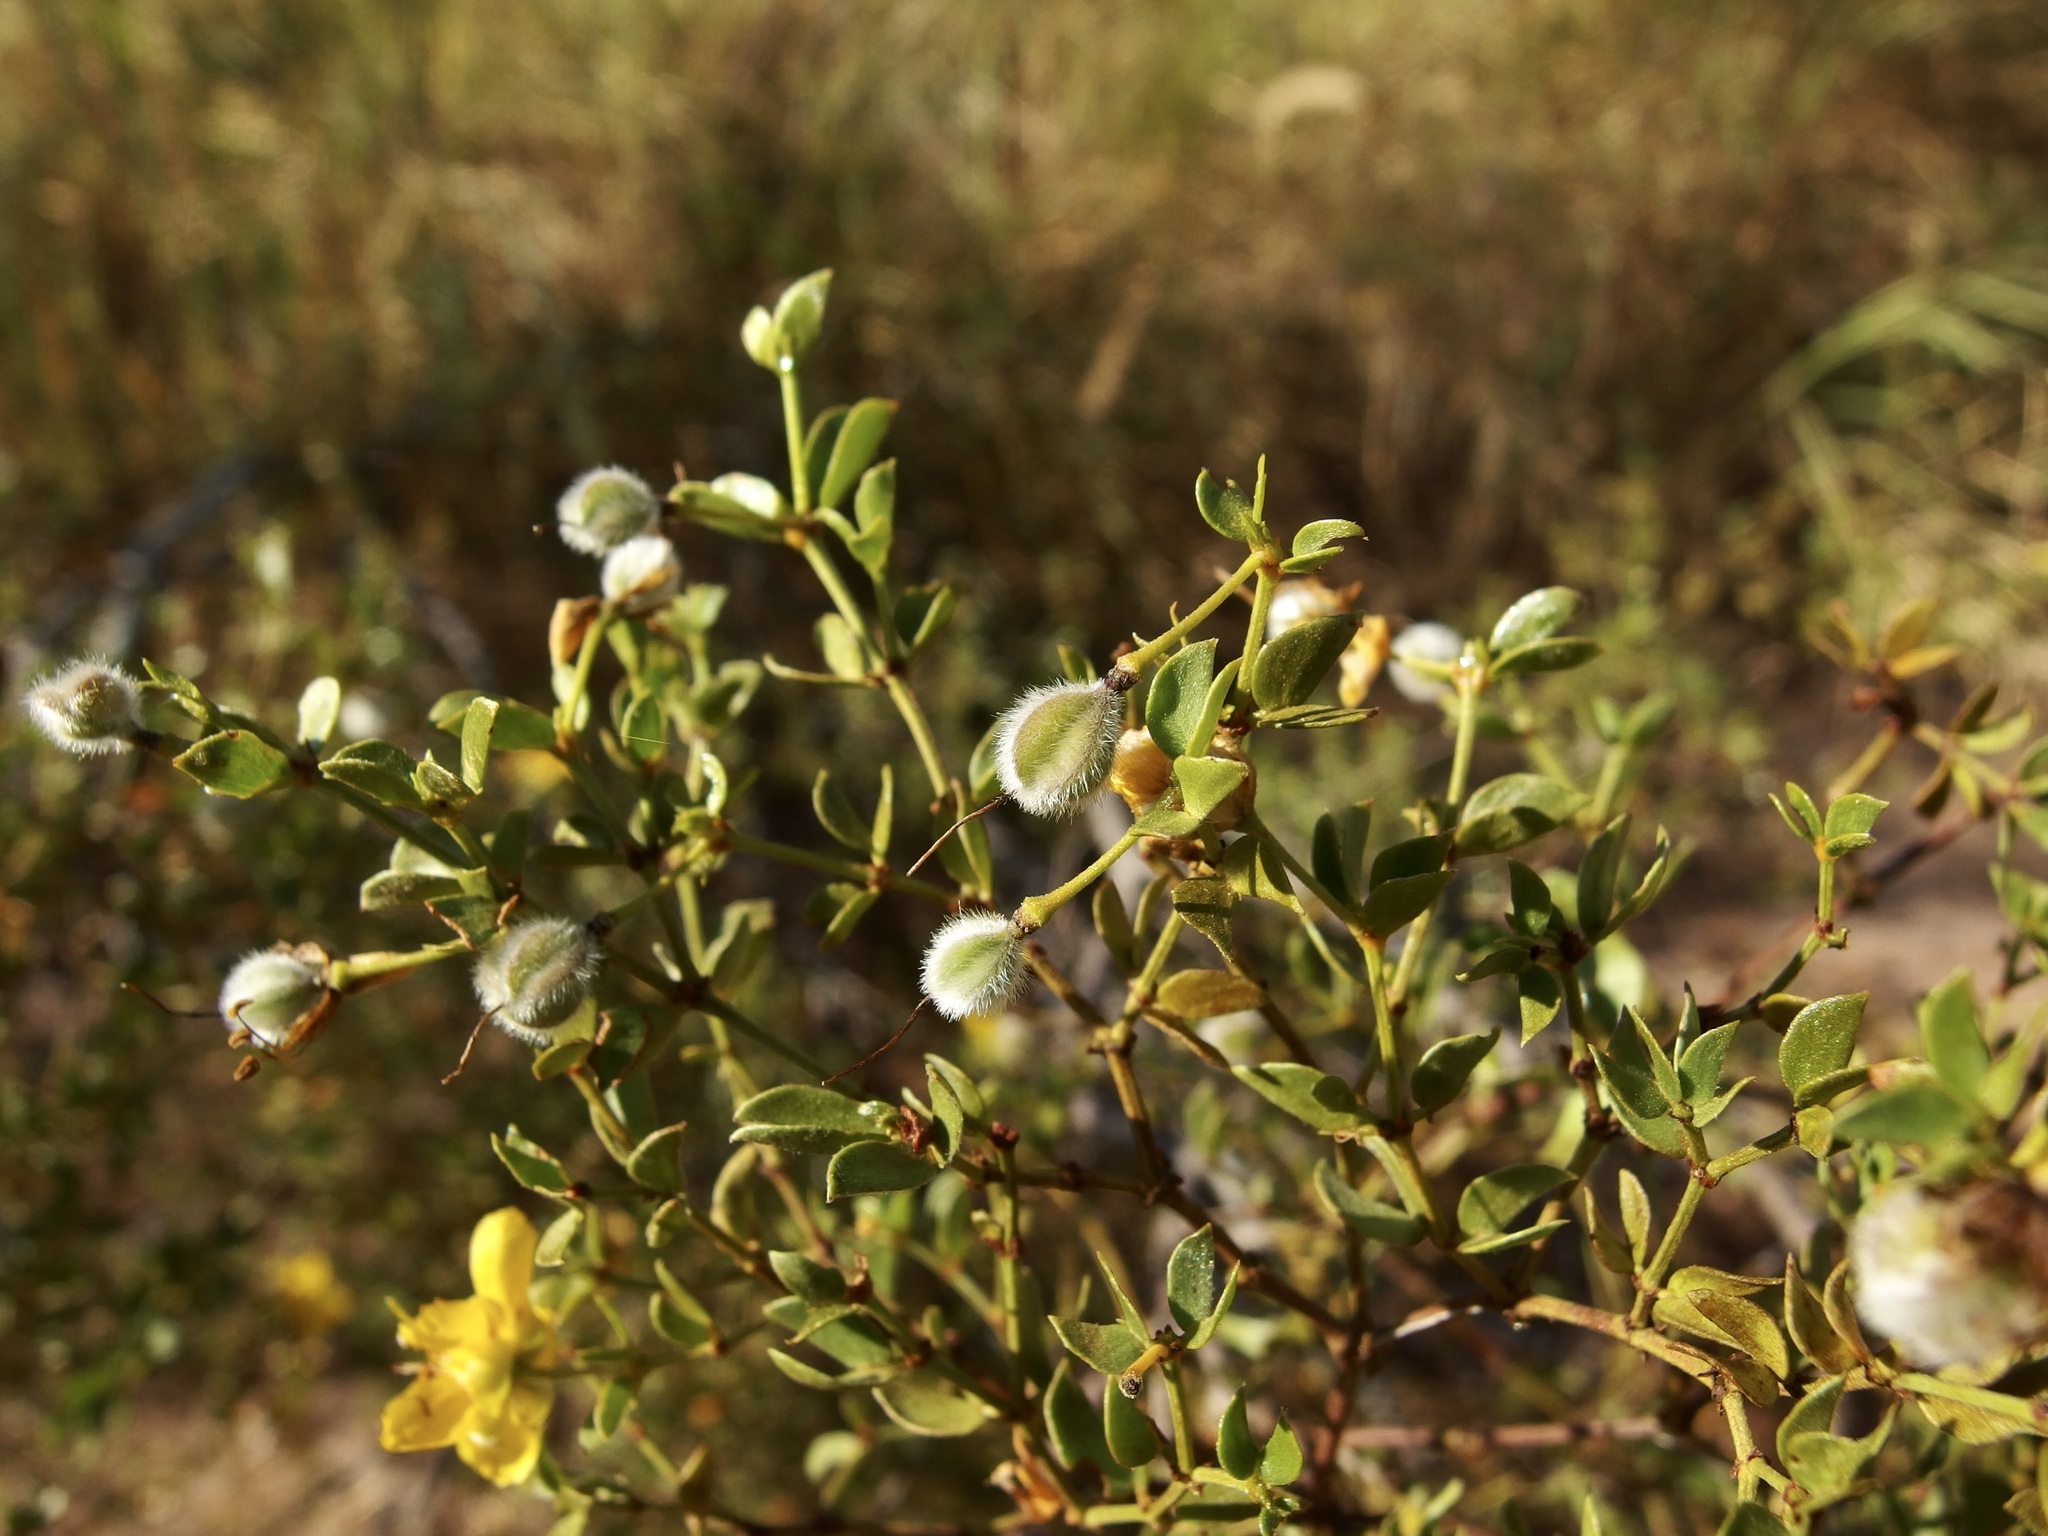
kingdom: Plantae
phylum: Tracheophyta
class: Magnoliopsida
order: Zygophyllales
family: Zygophyllaceae
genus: Larrea
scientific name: Larrea tridentata
